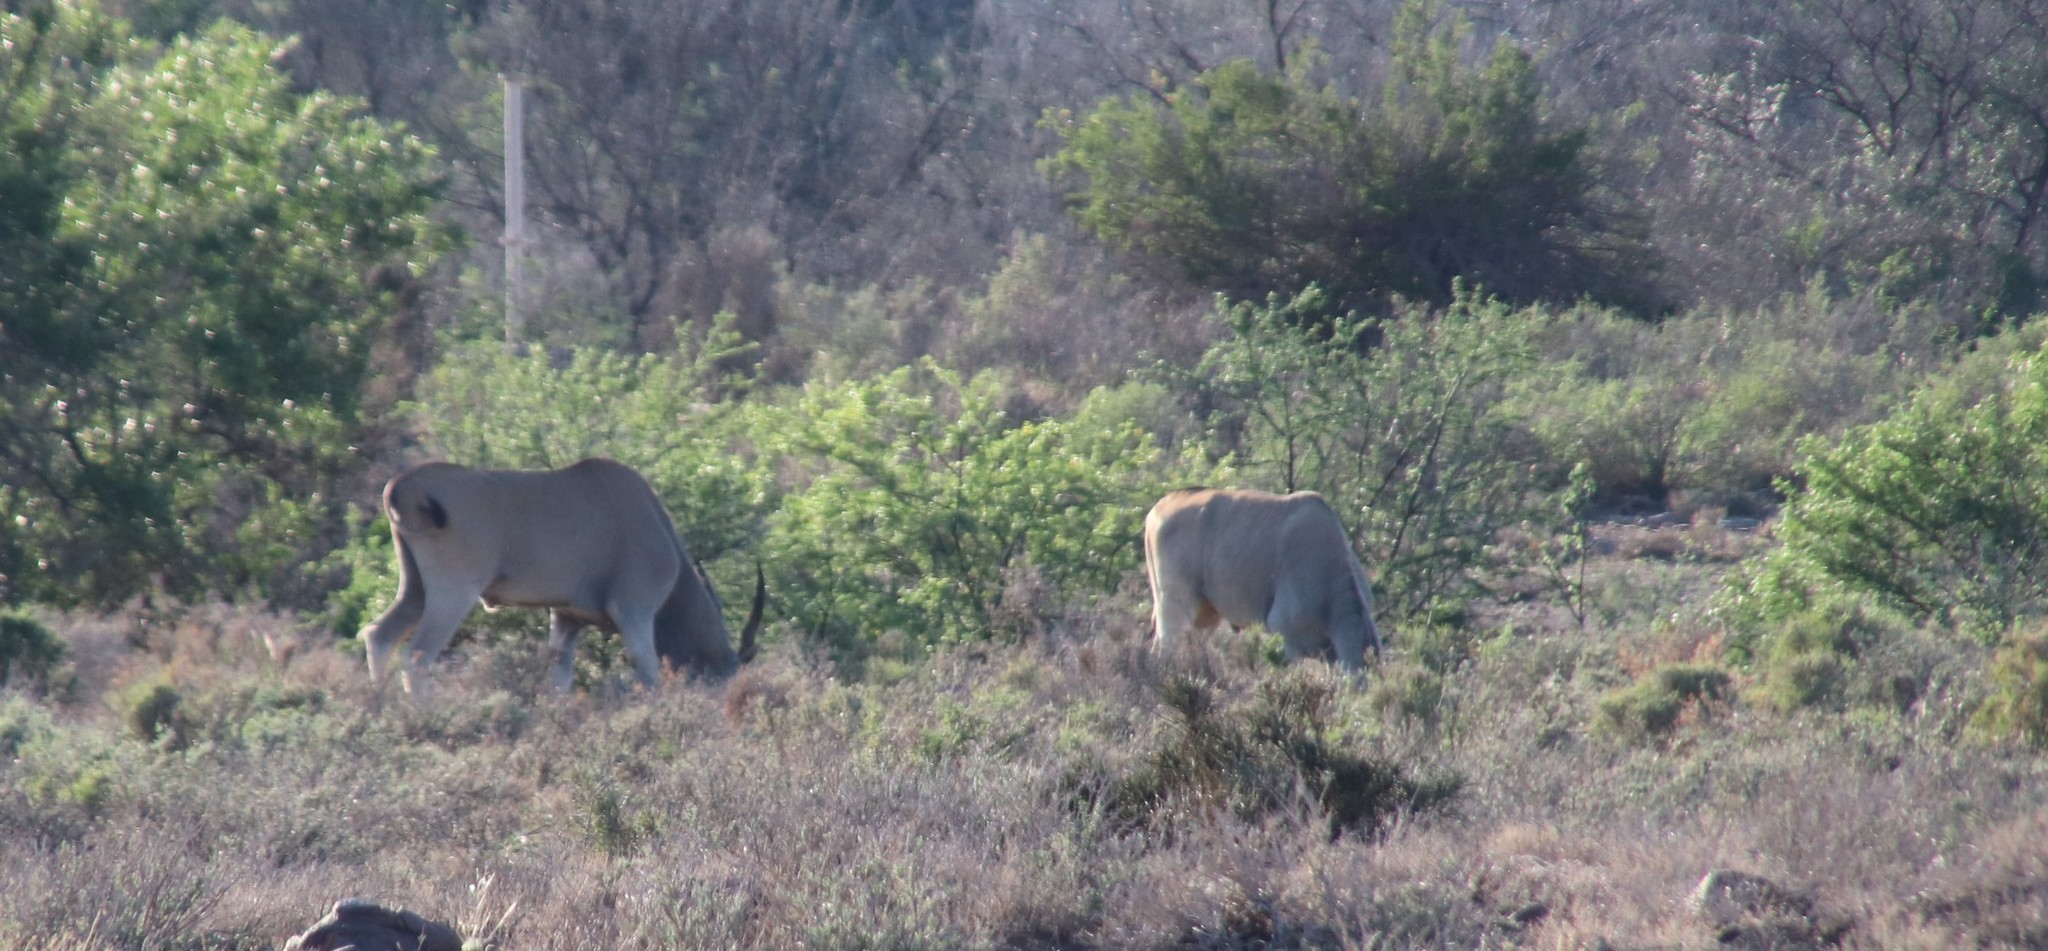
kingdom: Animalia
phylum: Chordata
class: Mammalia
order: Artiodactyla
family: Bovidae
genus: Taurotragus
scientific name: Taurotragus oryx
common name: Common eland
